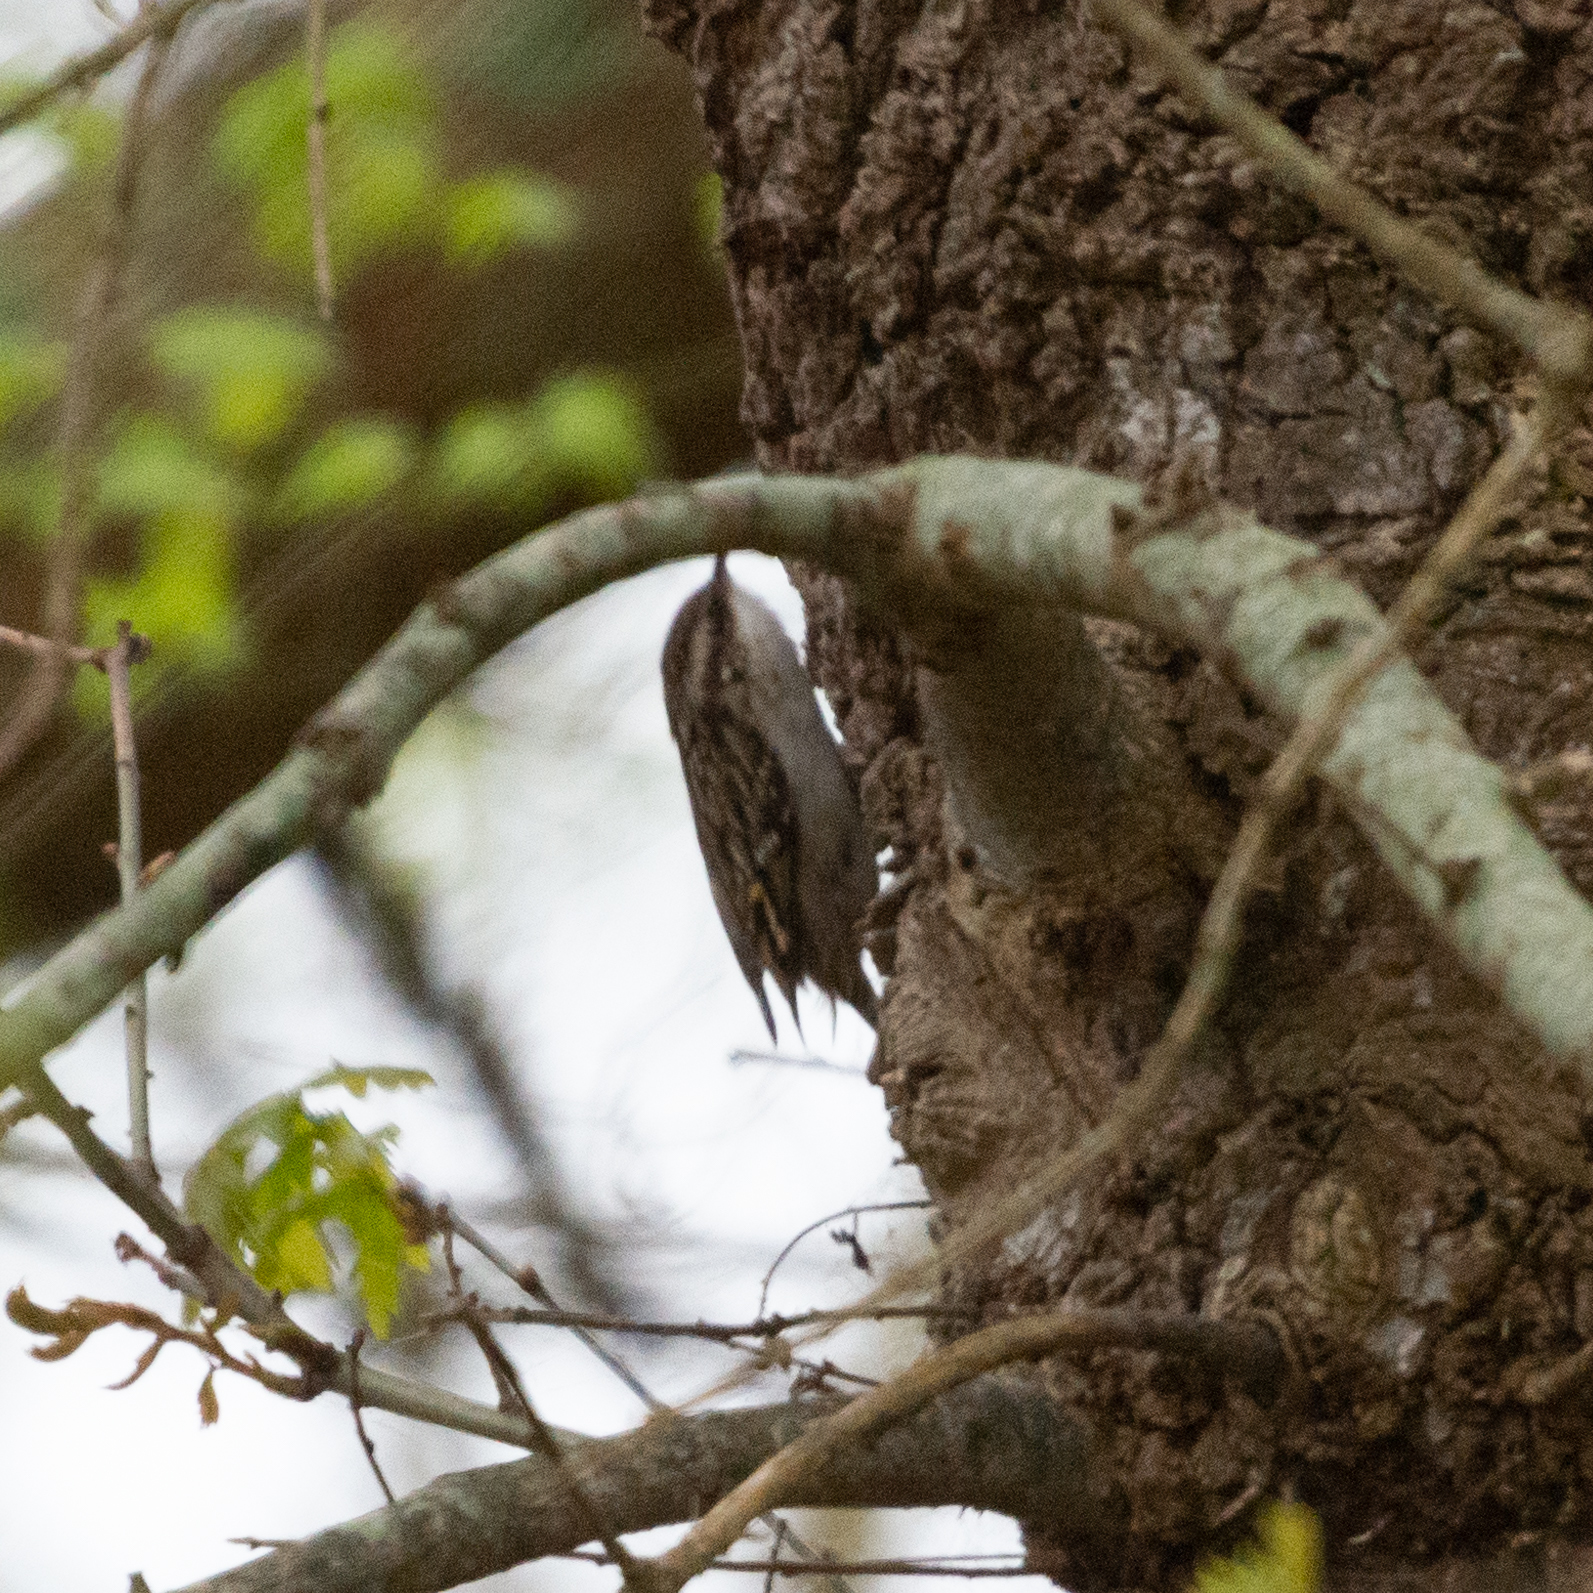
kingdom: Animalia
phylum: Chordata
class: Aves
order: Passeriformes
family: Certhiidae
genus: Certhia
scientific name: Certhia brachydactyla
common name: Short-toed treecreeper
